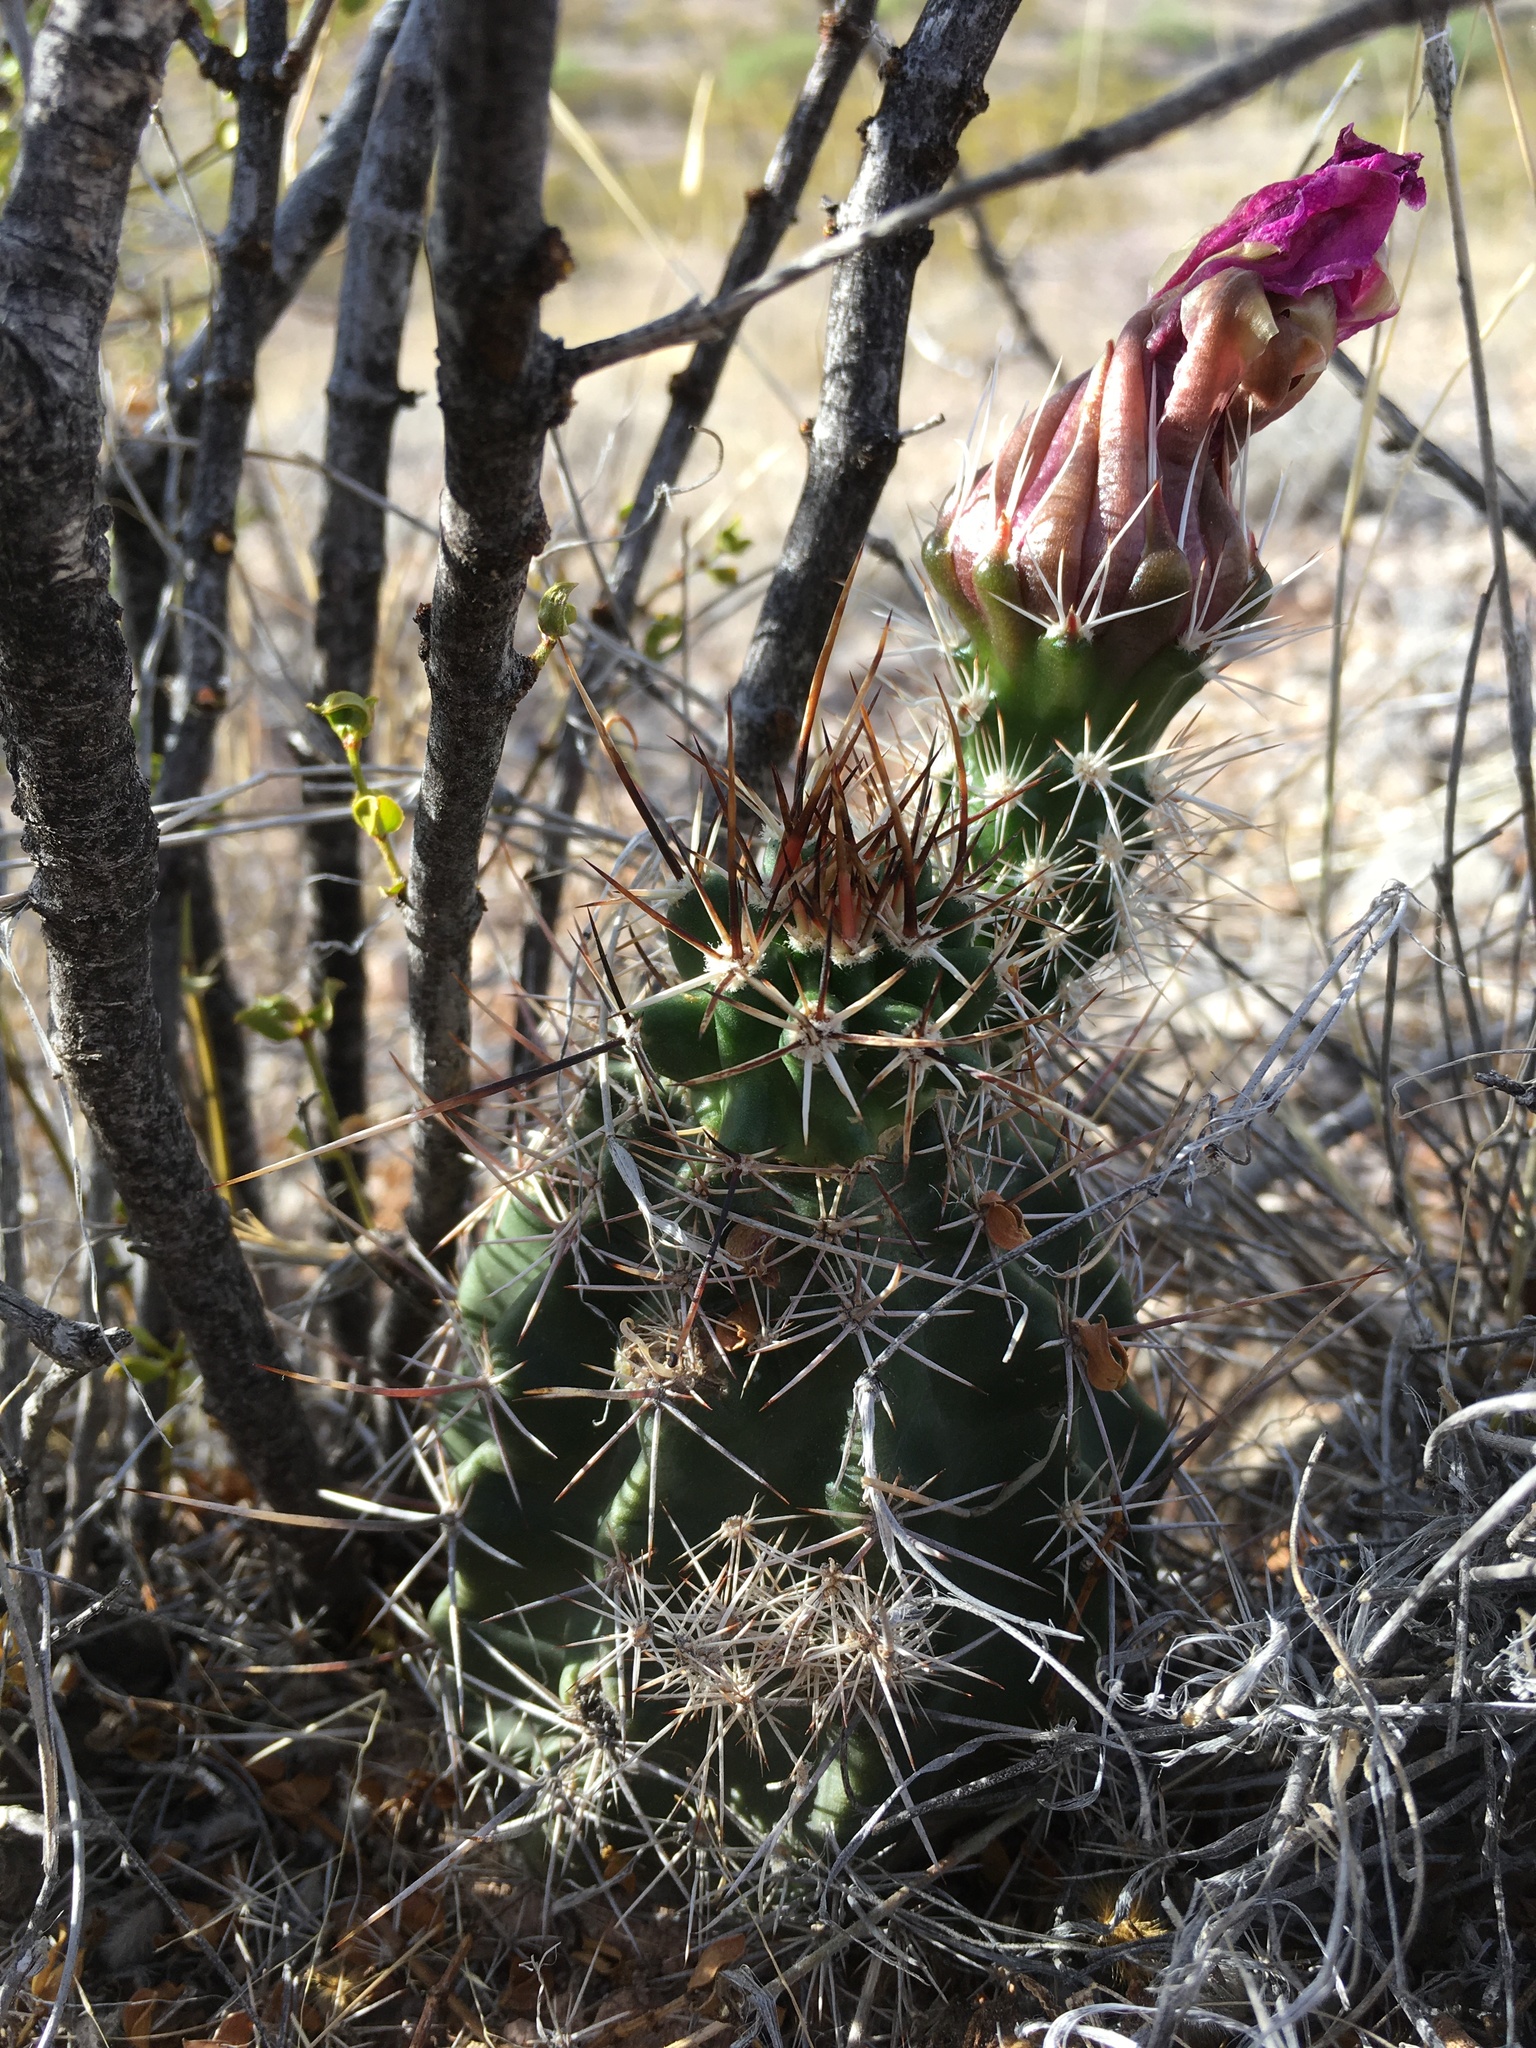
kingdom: Plantae
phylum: Tracheophyta
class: Magnoliopsida
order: Caryophyllales
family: Cactaceae
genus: Echinocereus
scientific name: Echinocereus fendleri
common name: Fendler's hedgehog cactus
